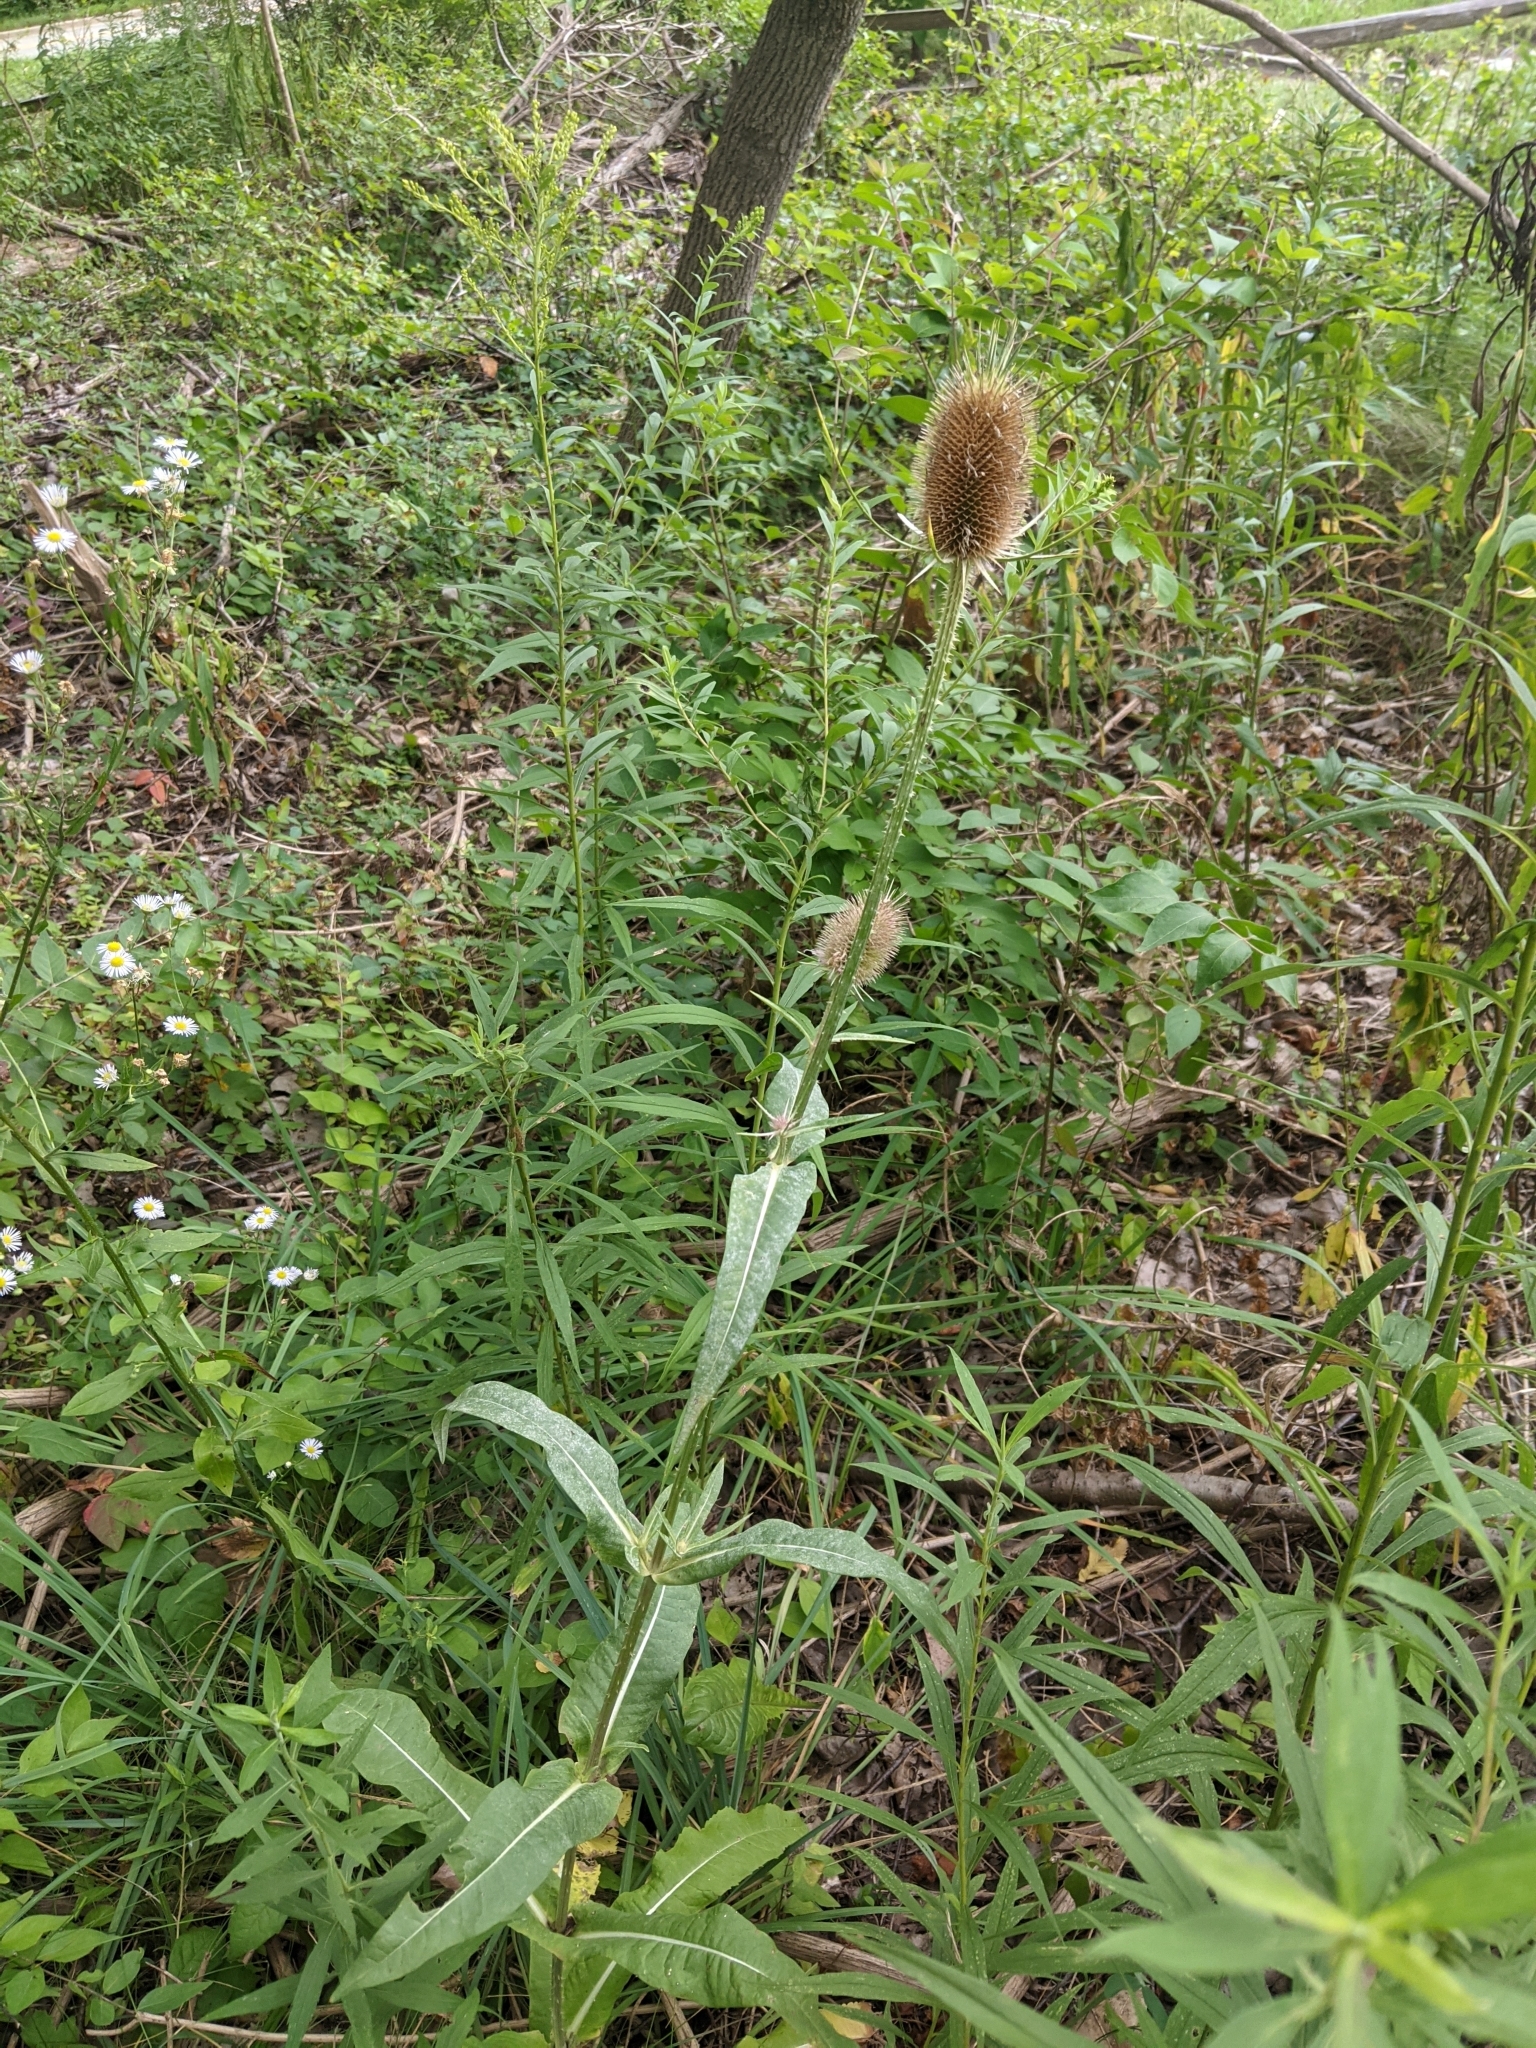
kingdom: Plantae
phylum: Tracheophyta
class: Magnoliopsida
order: Dipsacales
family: Caprifoliaceae
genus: Dipsacus
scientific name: Dipsacus fullonum
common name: Teasel
